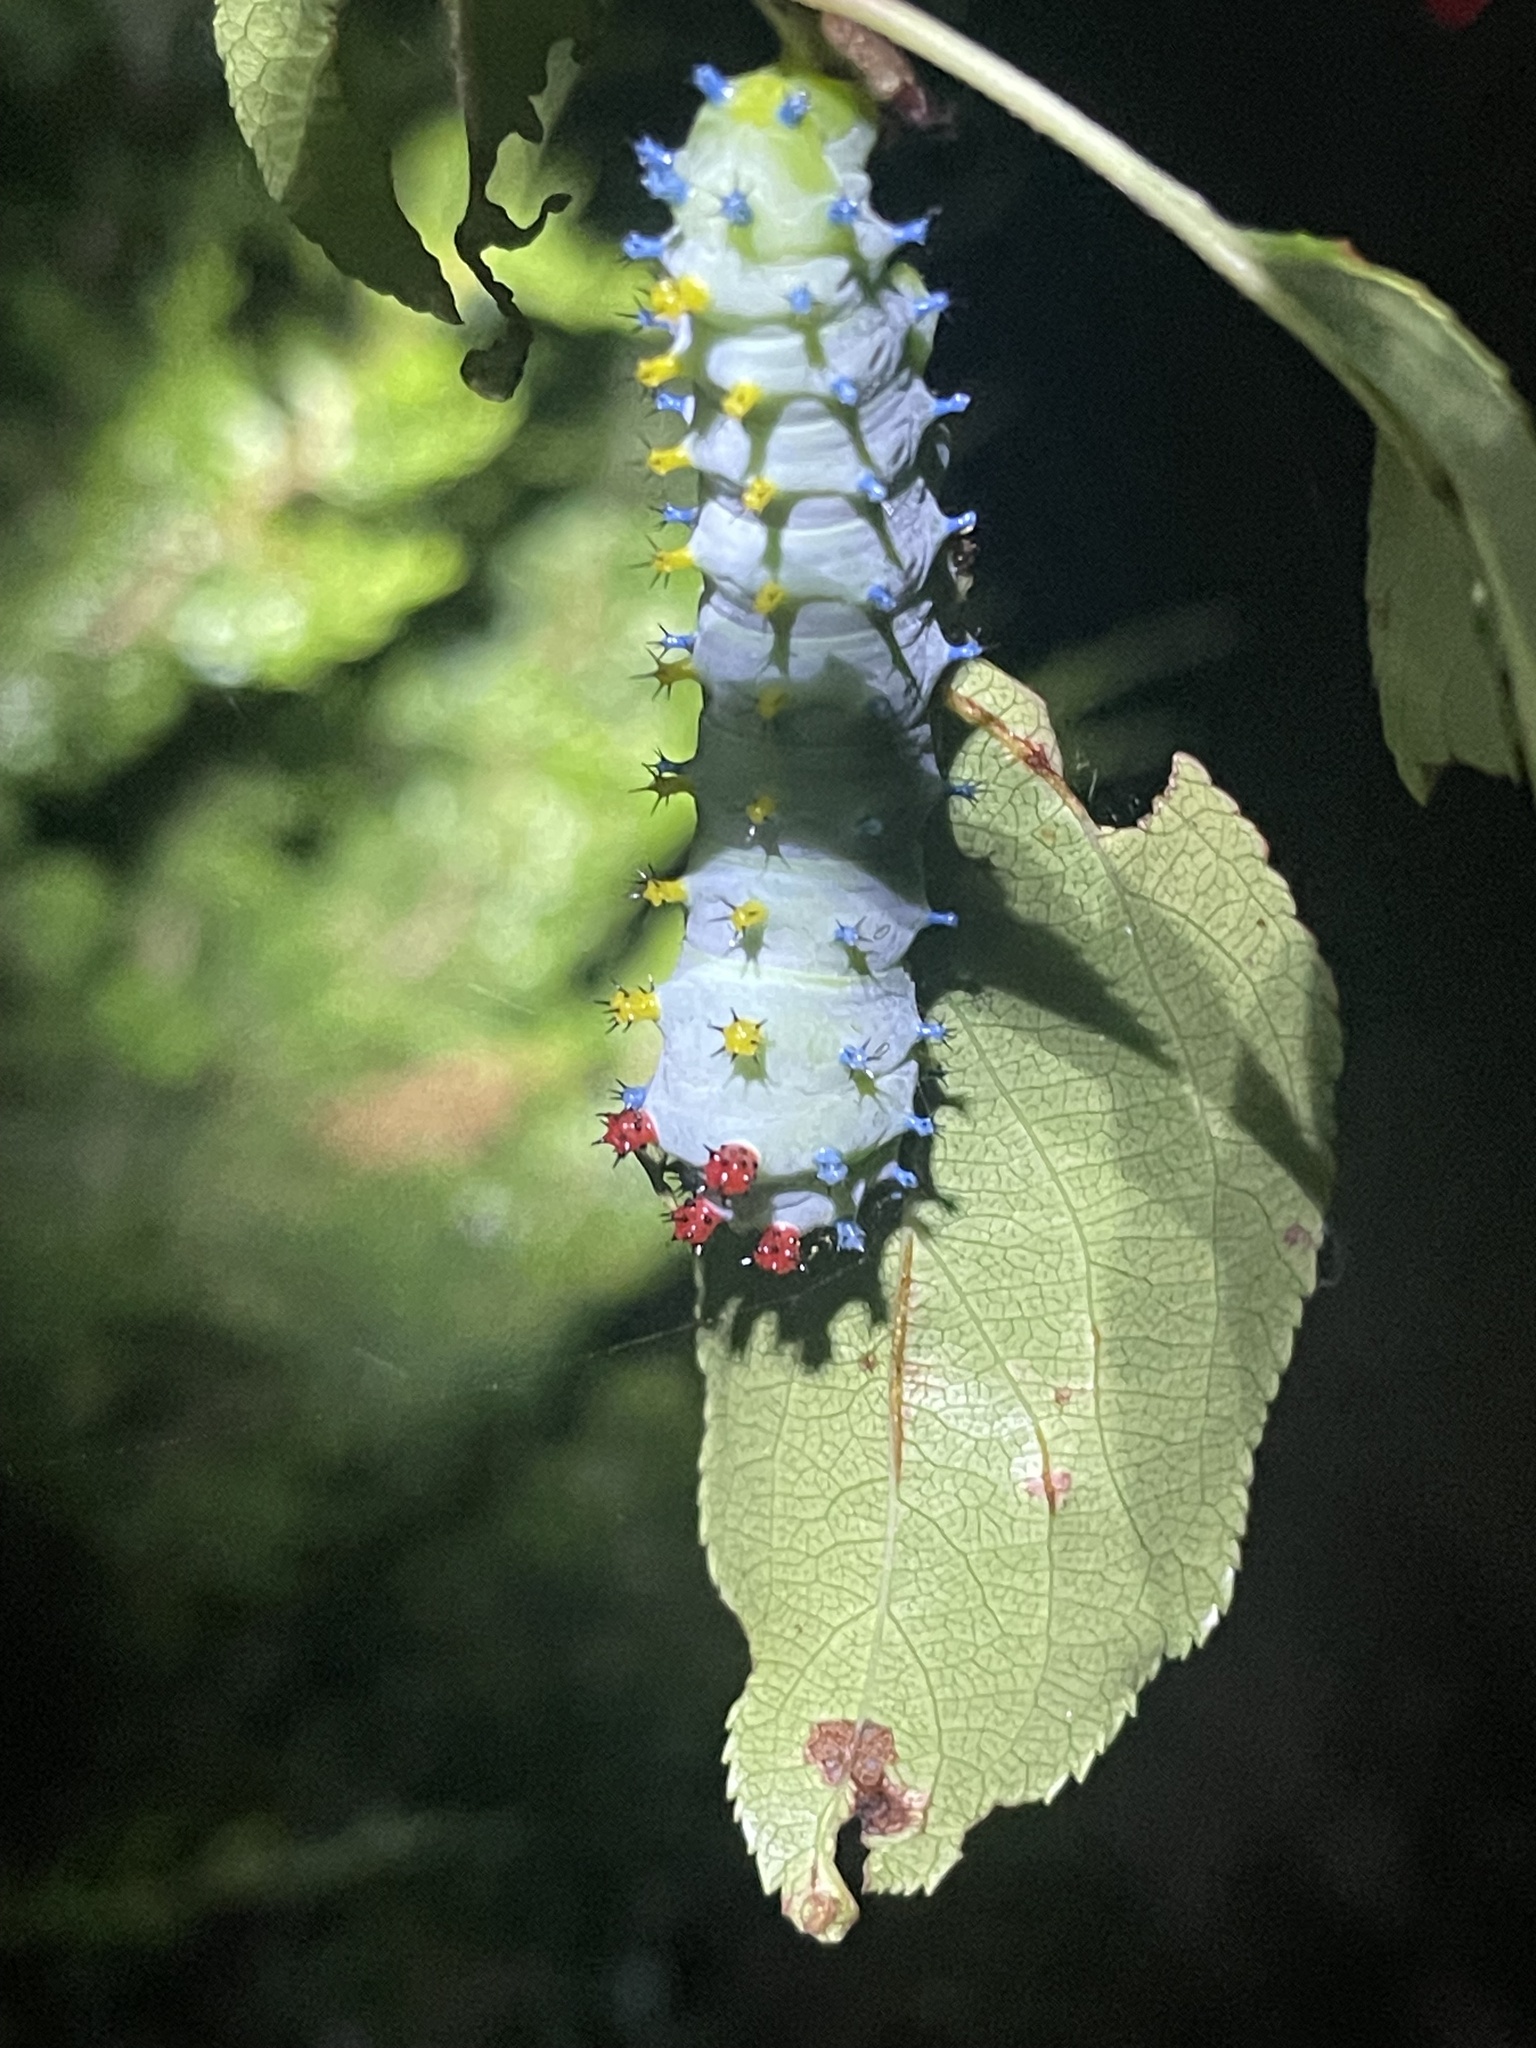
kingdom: Animalia
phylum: Arthropoda
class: Insecta
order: Lepidoptera
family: Saturniidae
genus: Hyalophora
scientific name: Hyalophora cecropia
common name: Cecropia silkmoth
